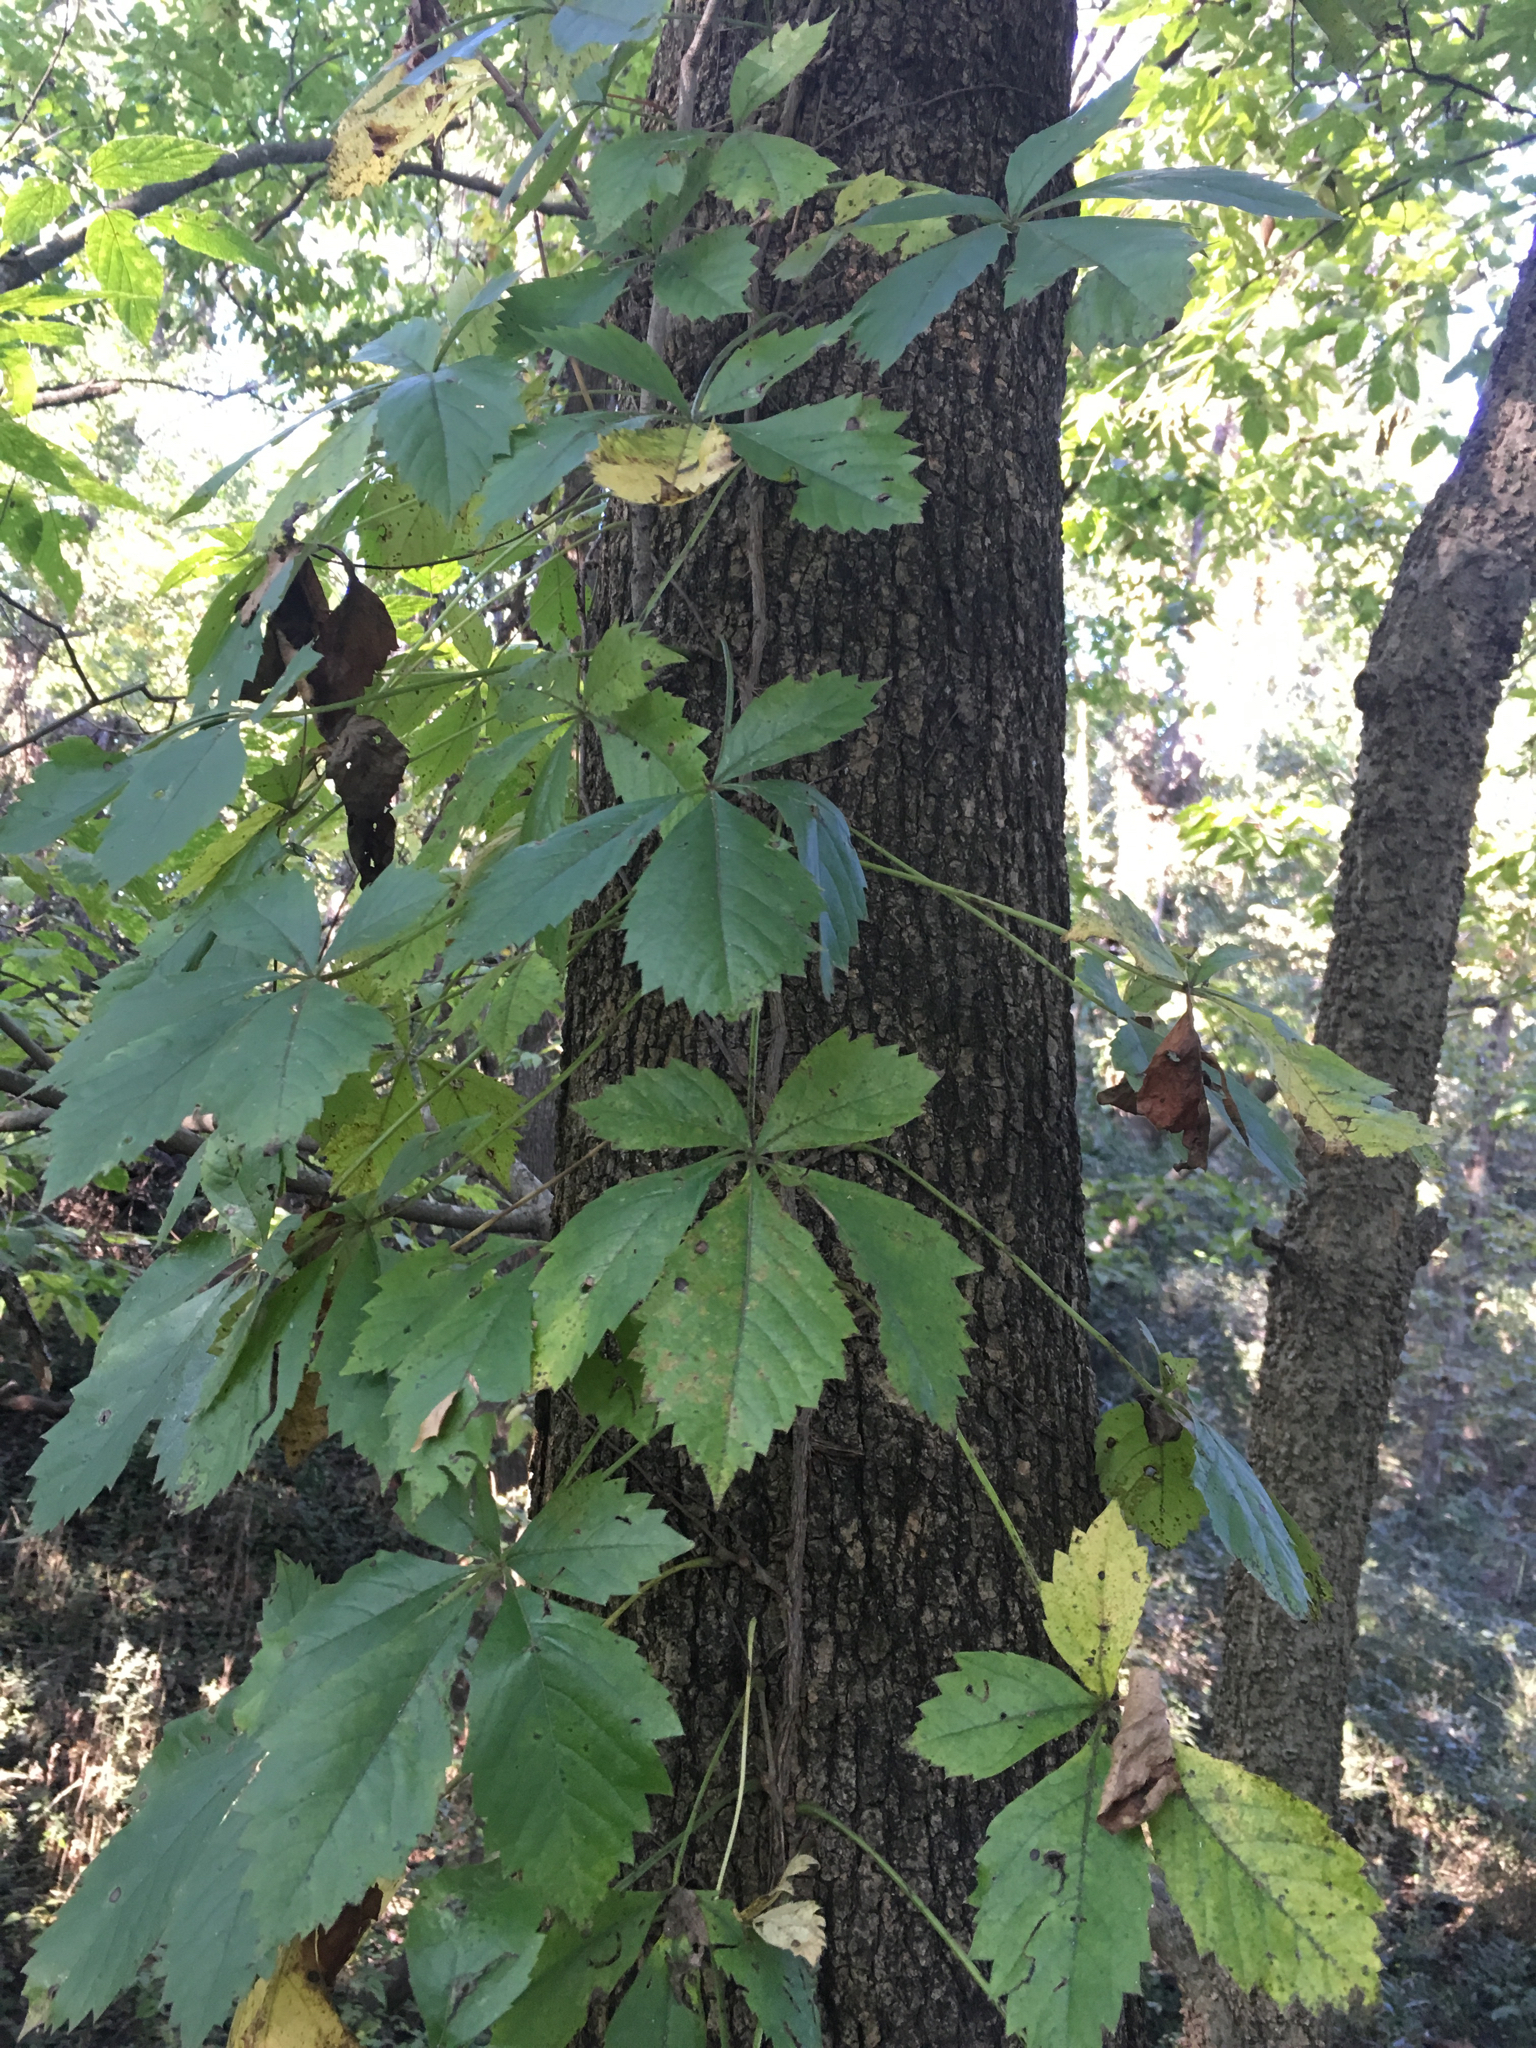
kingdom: Plantae
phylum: Tracheophyta
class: Magnoliopsida
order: Vitales
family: Vitaceae
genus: Parthenocissus
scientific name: Parthenocissus quinquefolia
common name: Virginia-creeper
